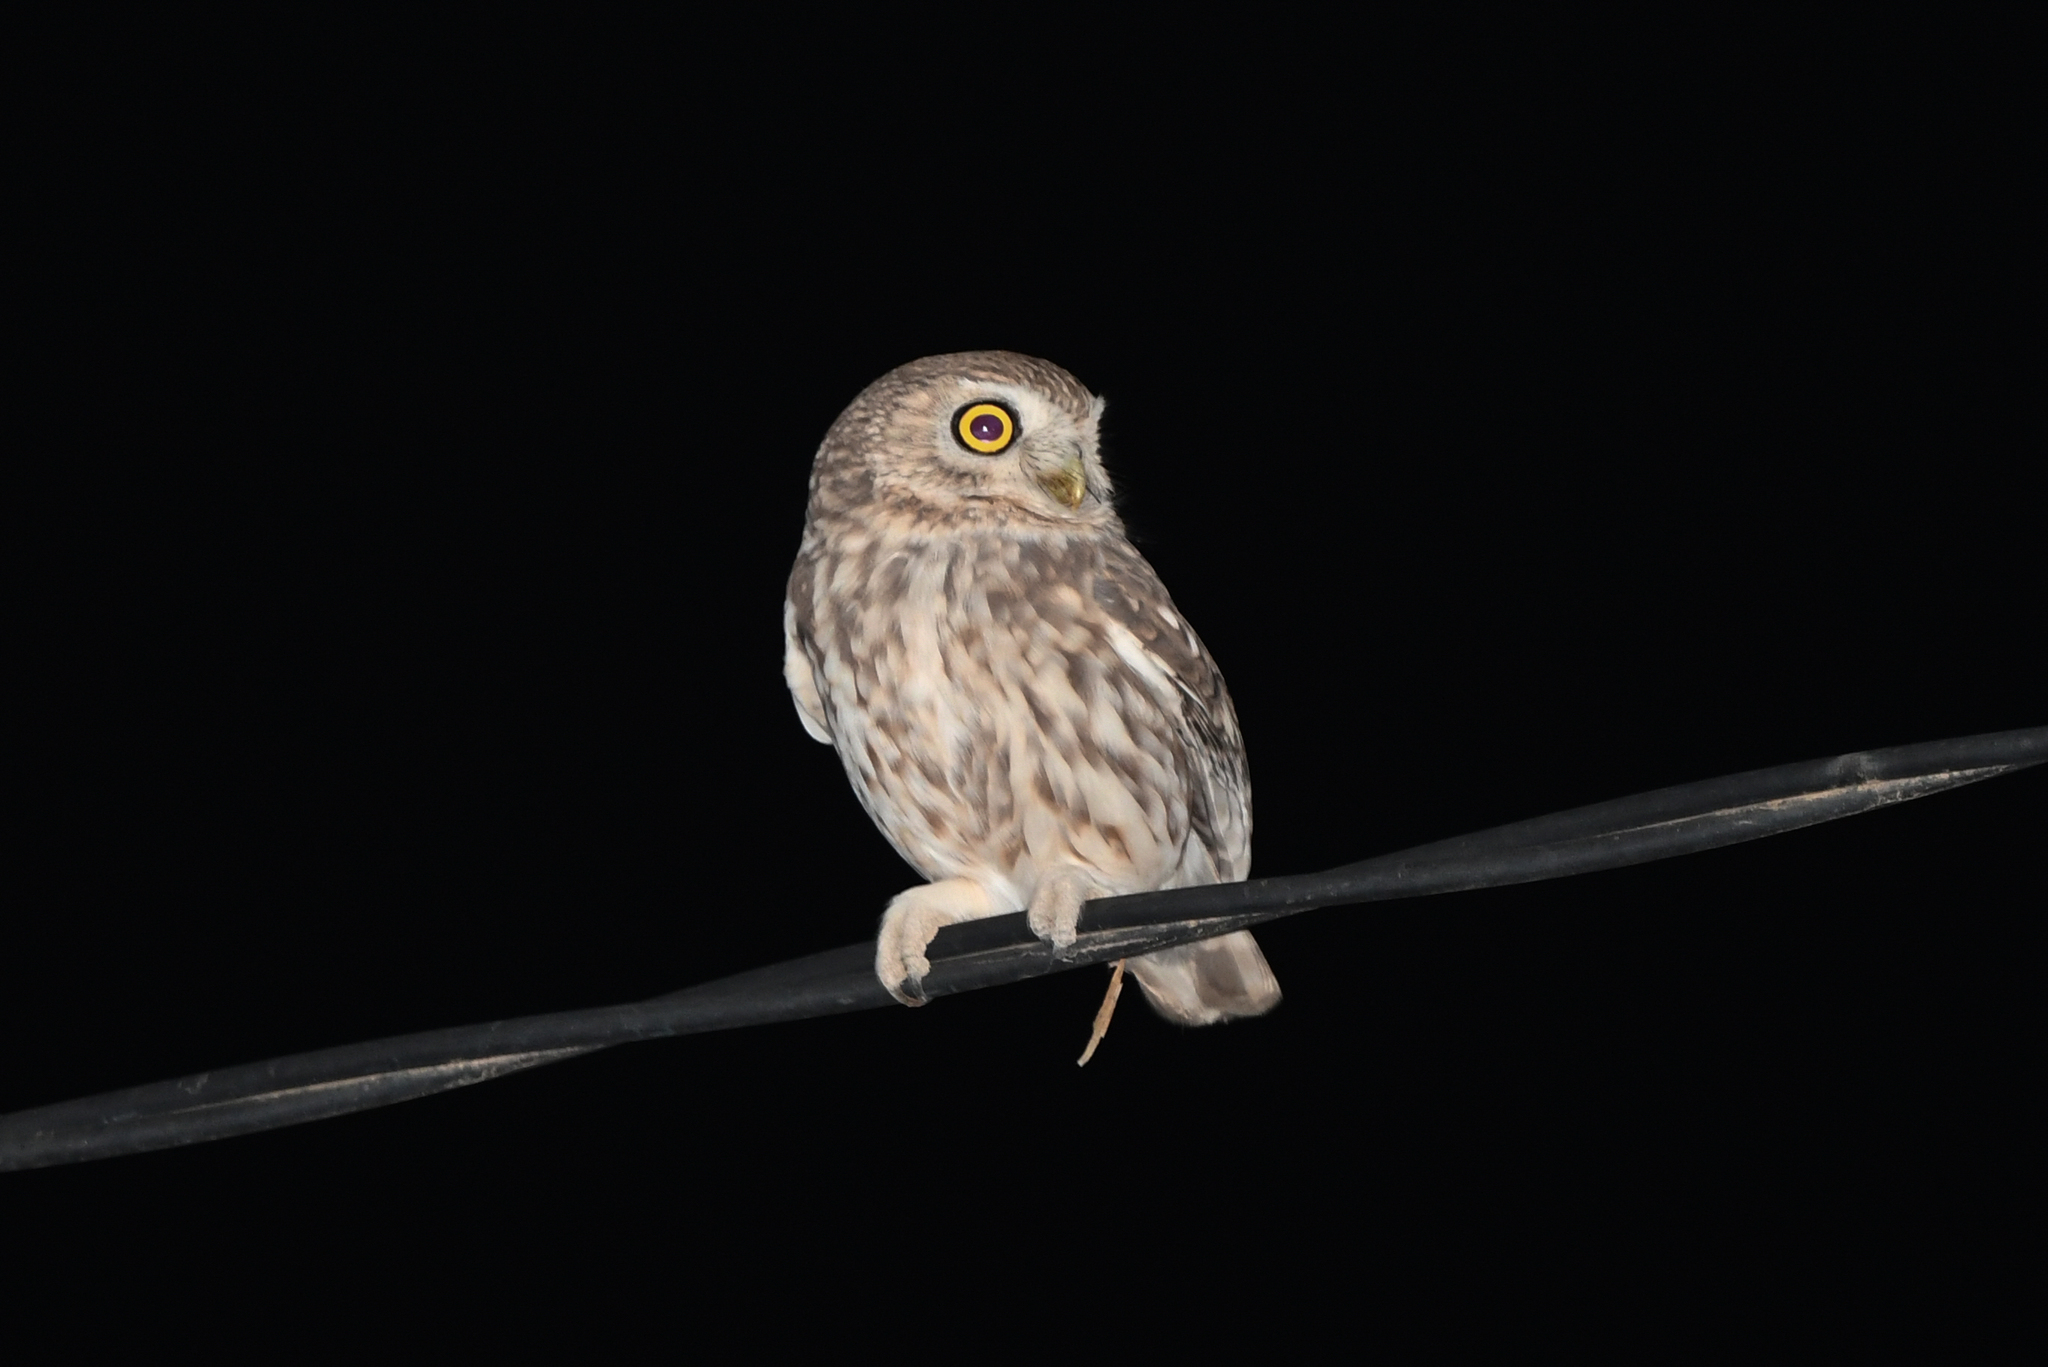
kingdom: Animalia
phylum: Chordata
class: Aves
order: Strigiformes
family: Strigidae
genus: Athene
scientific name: Athene noctua
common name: Little owl
